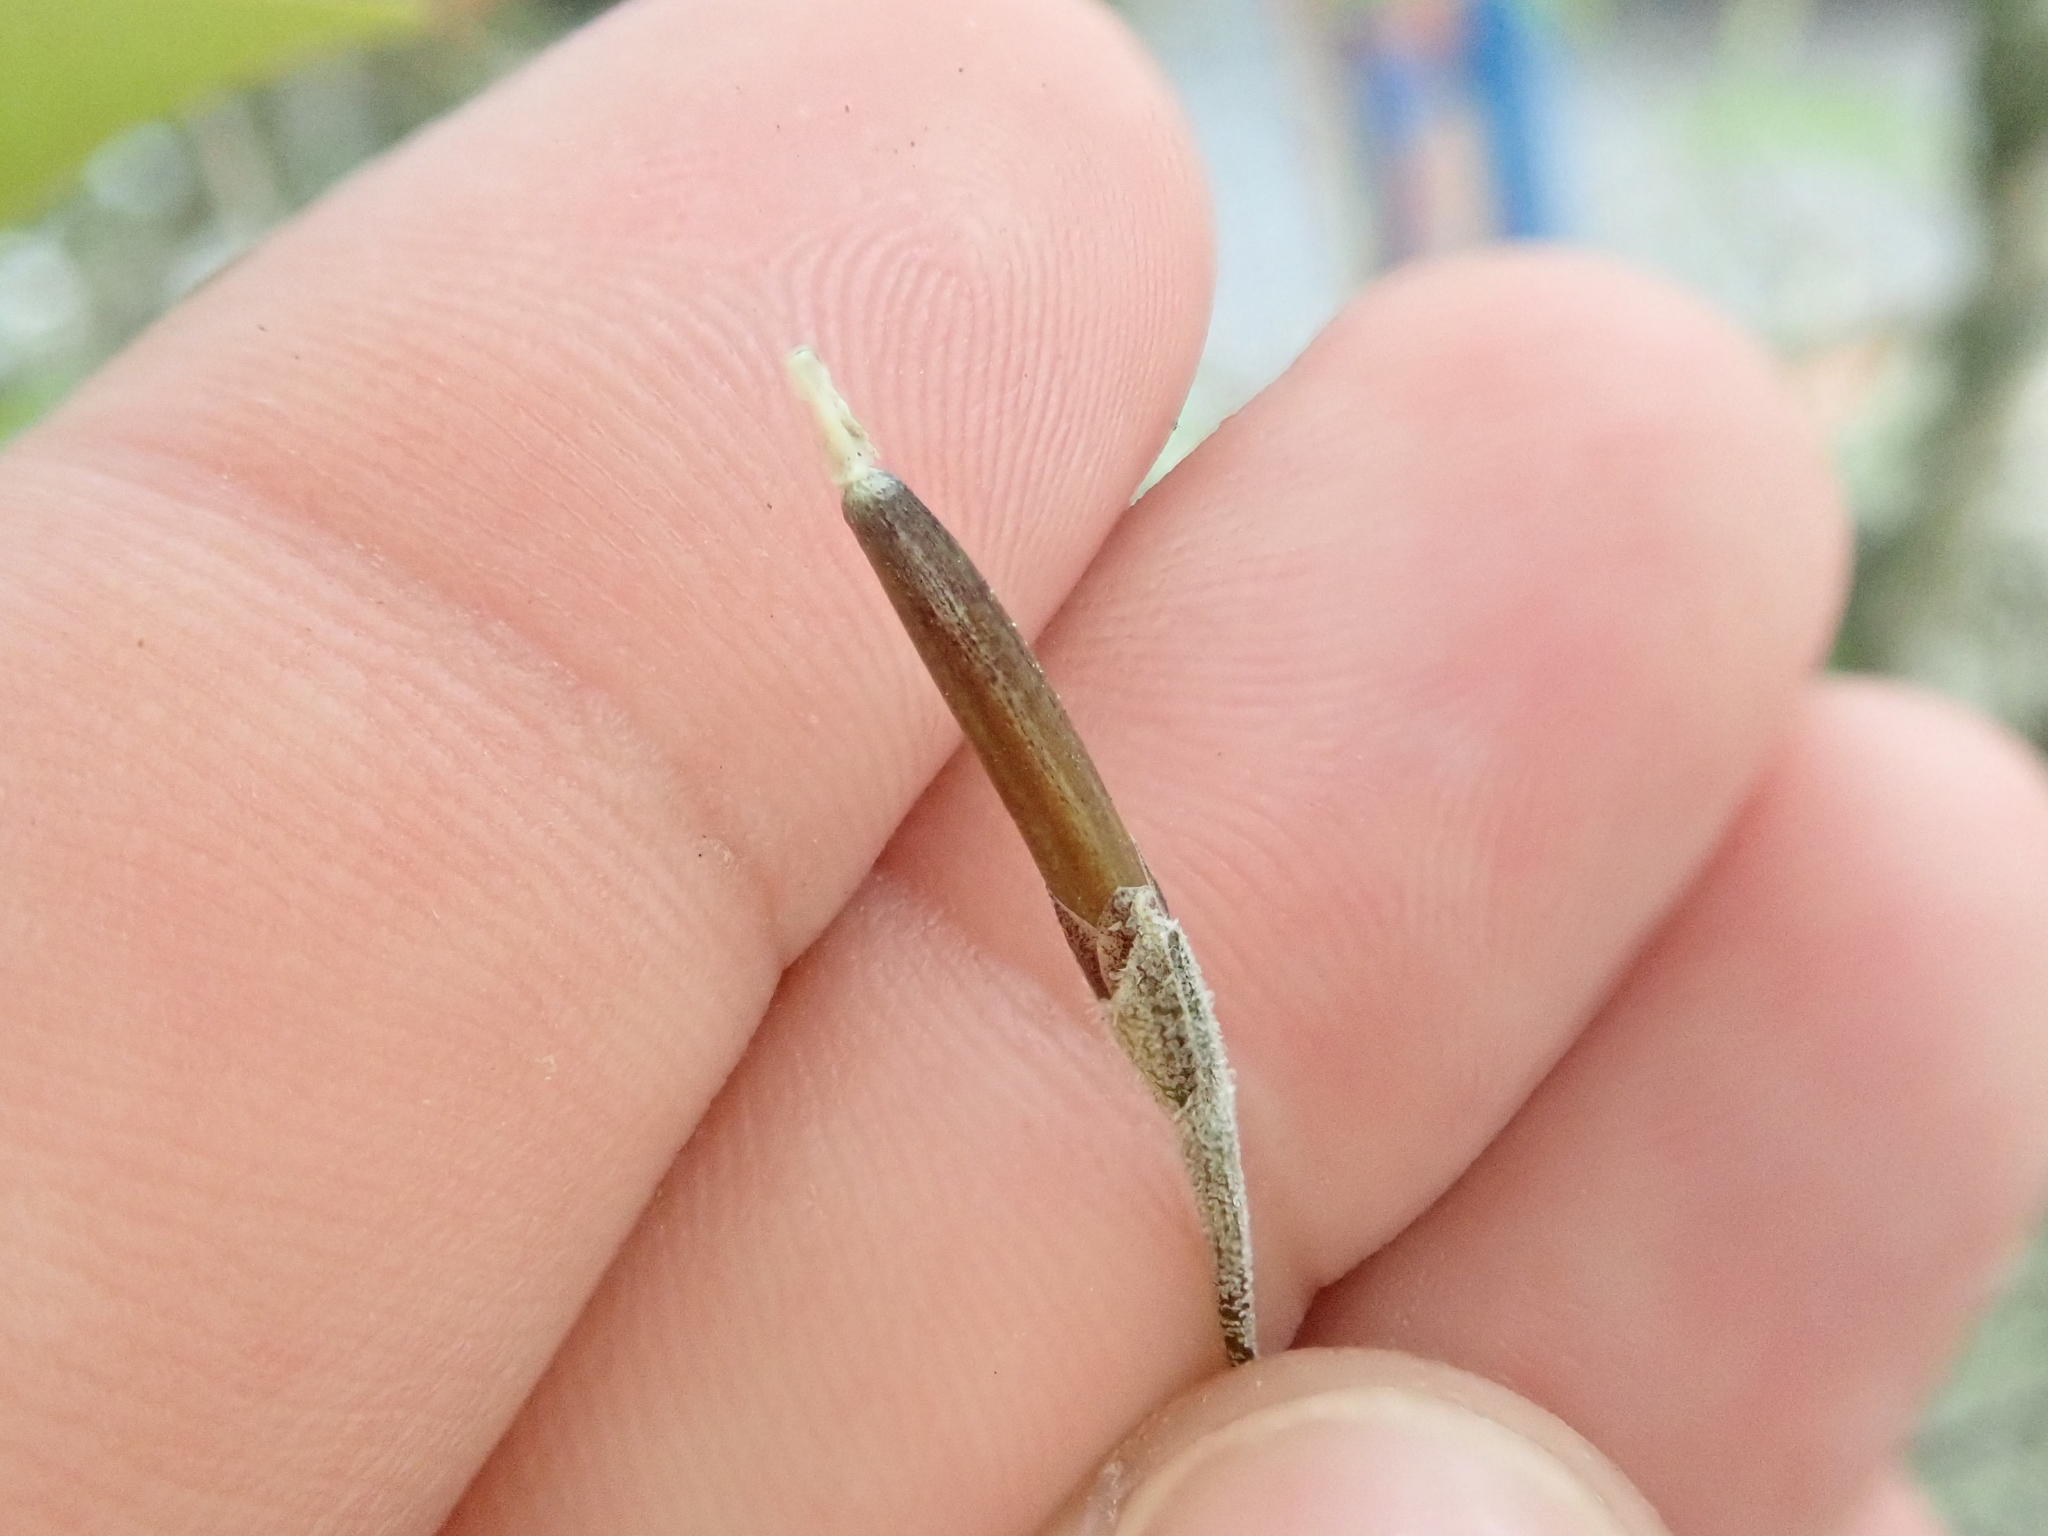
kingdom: Plantae
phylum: Tracheophyta
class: Liliopsida
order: Poales
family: Bromeliaceae
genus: Tillandsia
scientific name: Tillandsia recurvata
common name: Small ballmoss
